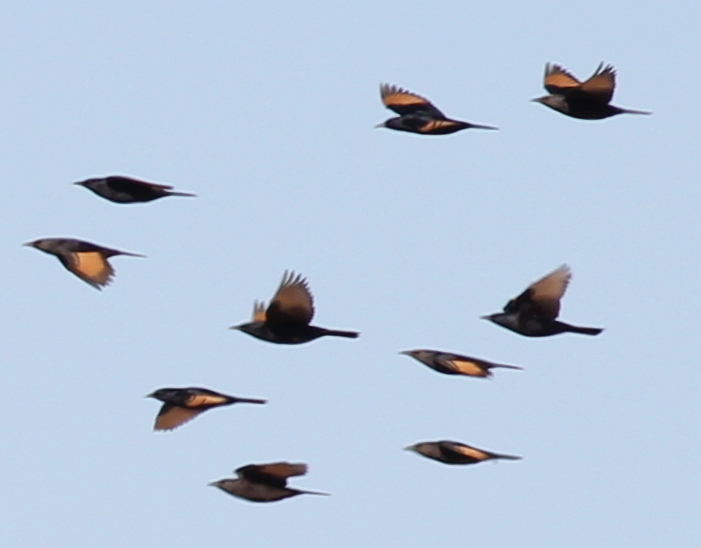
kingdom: Animalia
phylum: Chordata
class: Aves
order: Passeriformes
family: Sturnidae
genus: Onychognathus
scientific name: Onychognathus tristramii
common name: Tristram's starling
